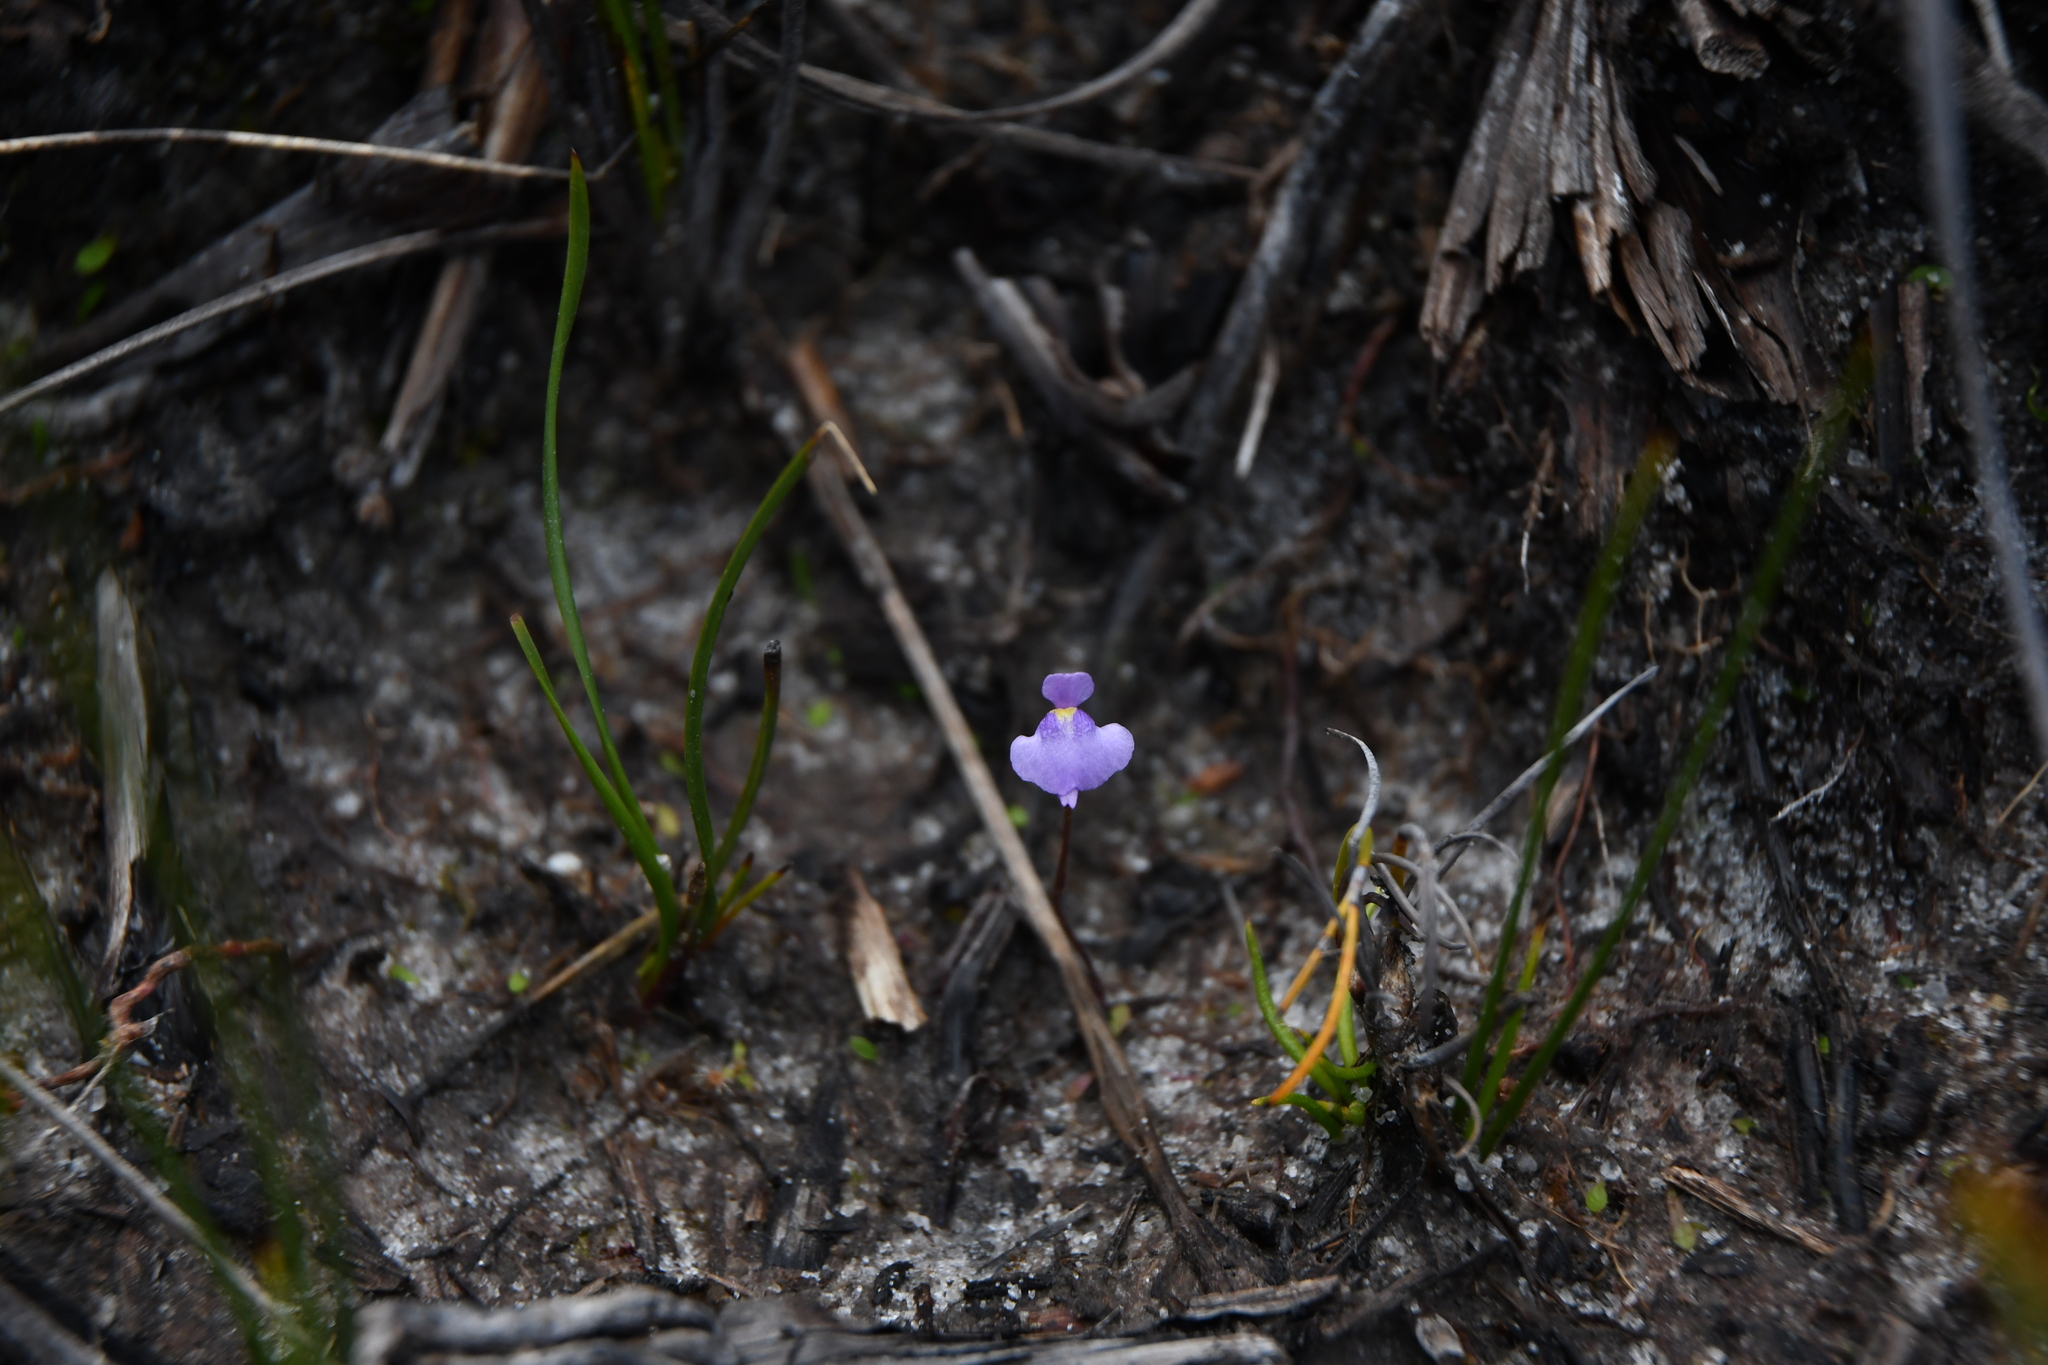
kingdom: Plantae
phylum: Tracheophyta
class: Magnoliopsida
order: Lamiales
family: Lentibulariaceae
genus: Utricularia
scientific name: Utricularia simplex
